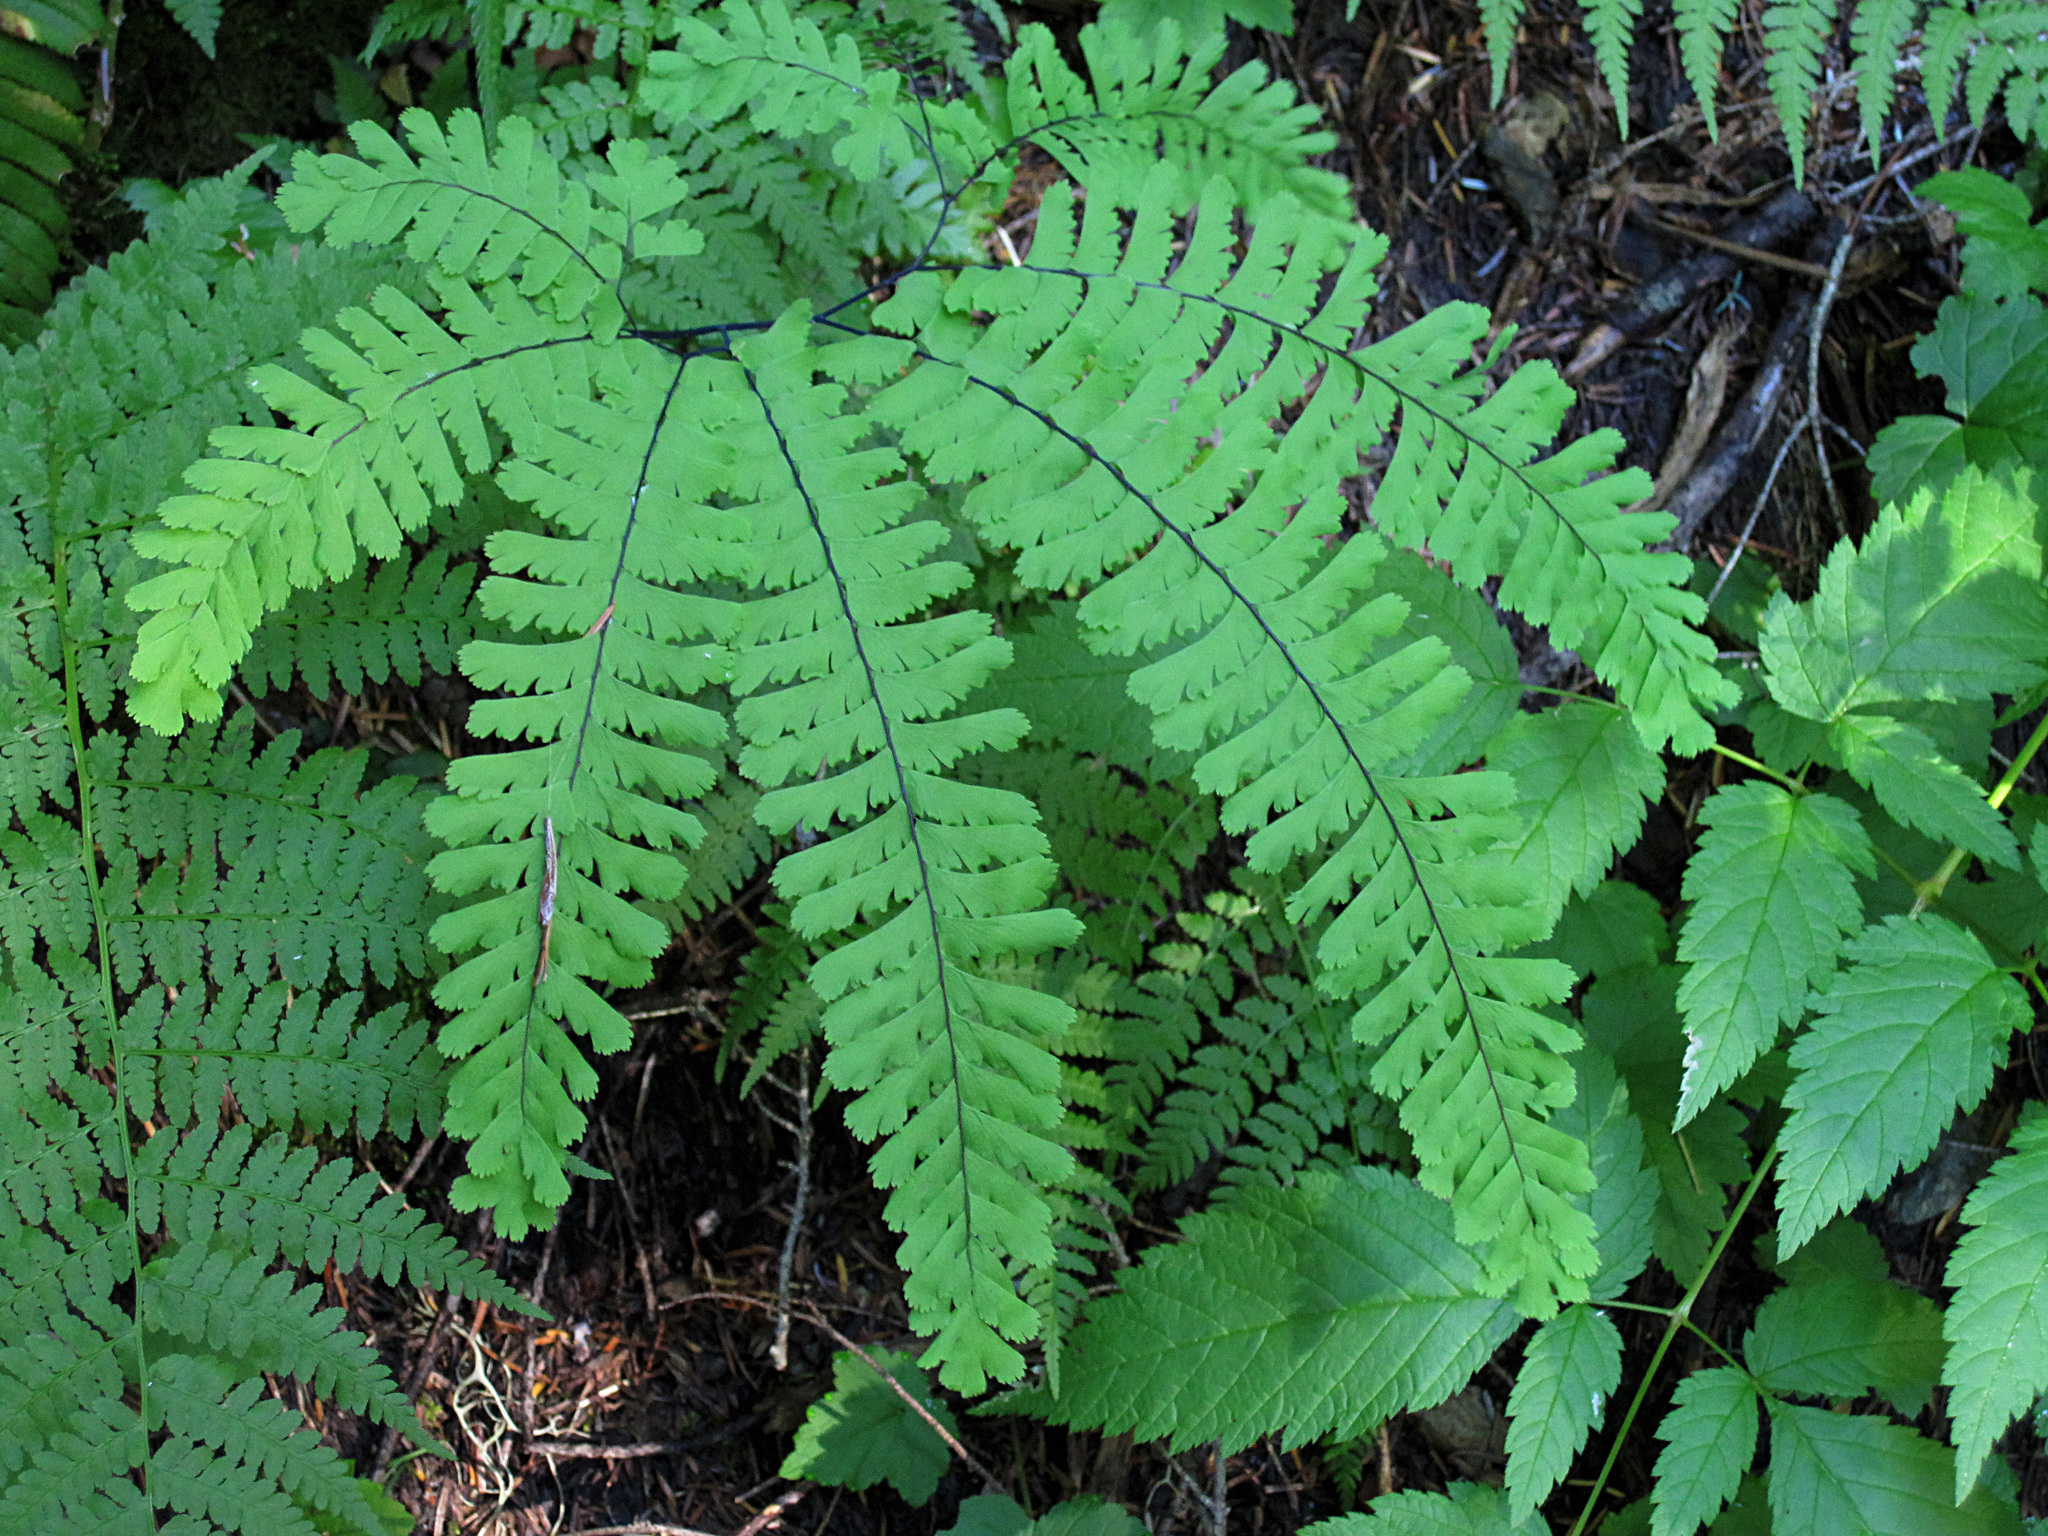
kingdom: Plantae
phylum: Tracheophyta
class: Polypodiopsida
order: Polypodiales
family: Pteridaceae
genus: Adiantum
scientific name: Adiantum aleuticum
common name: Aleutian maidenhair fern
